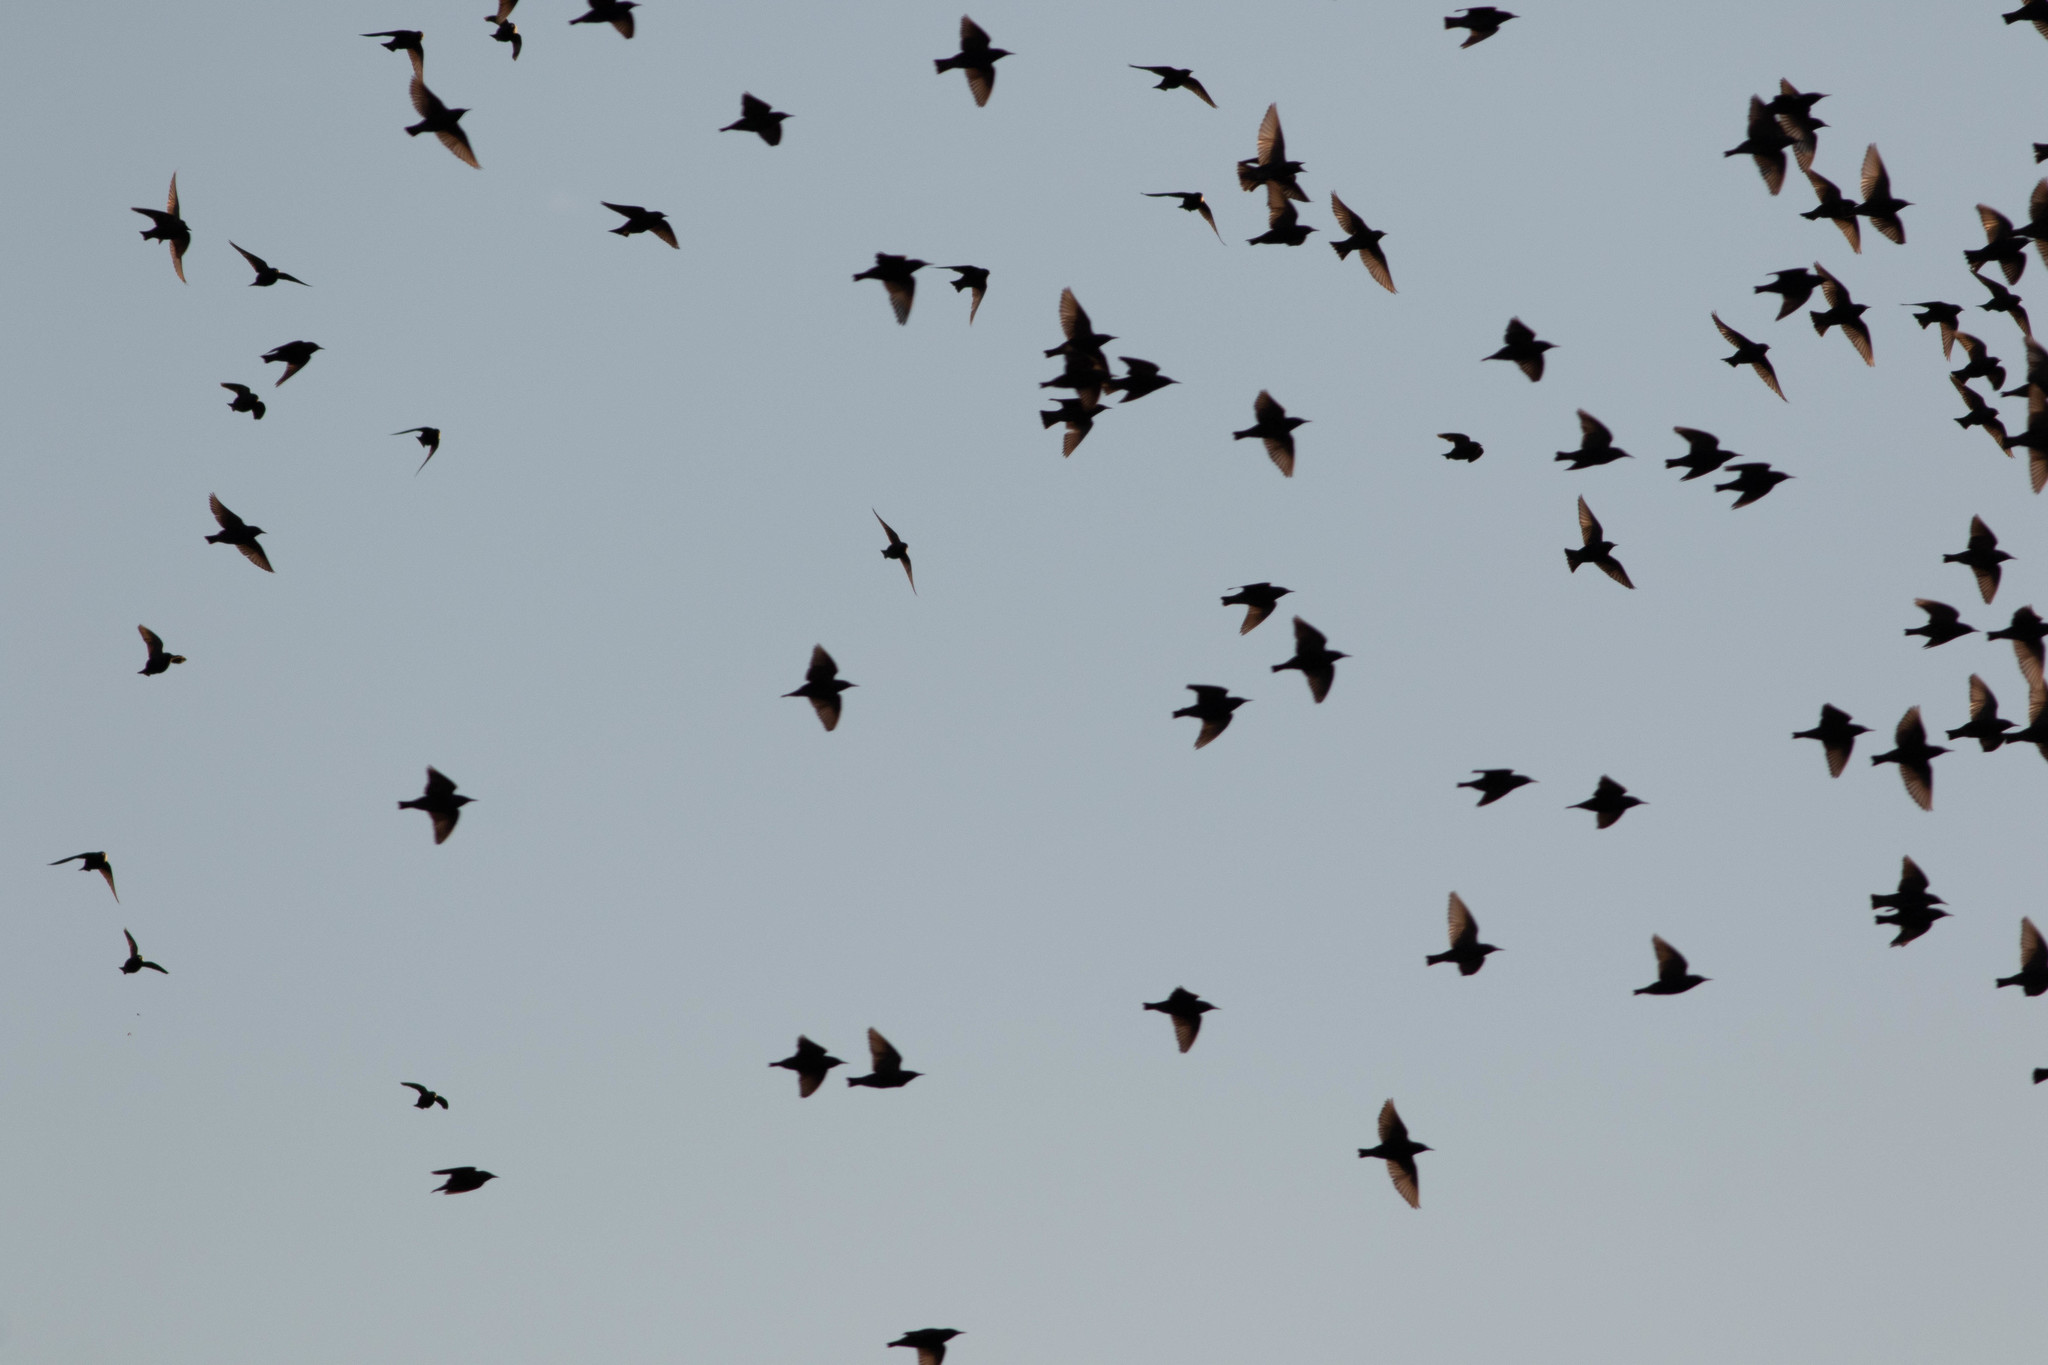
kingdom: Animalia
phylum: Chordata
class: Aves
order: Passeriformes
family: Sturnidae
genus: Sturnus
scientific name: Sturnus vulgaris
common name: Common starling
